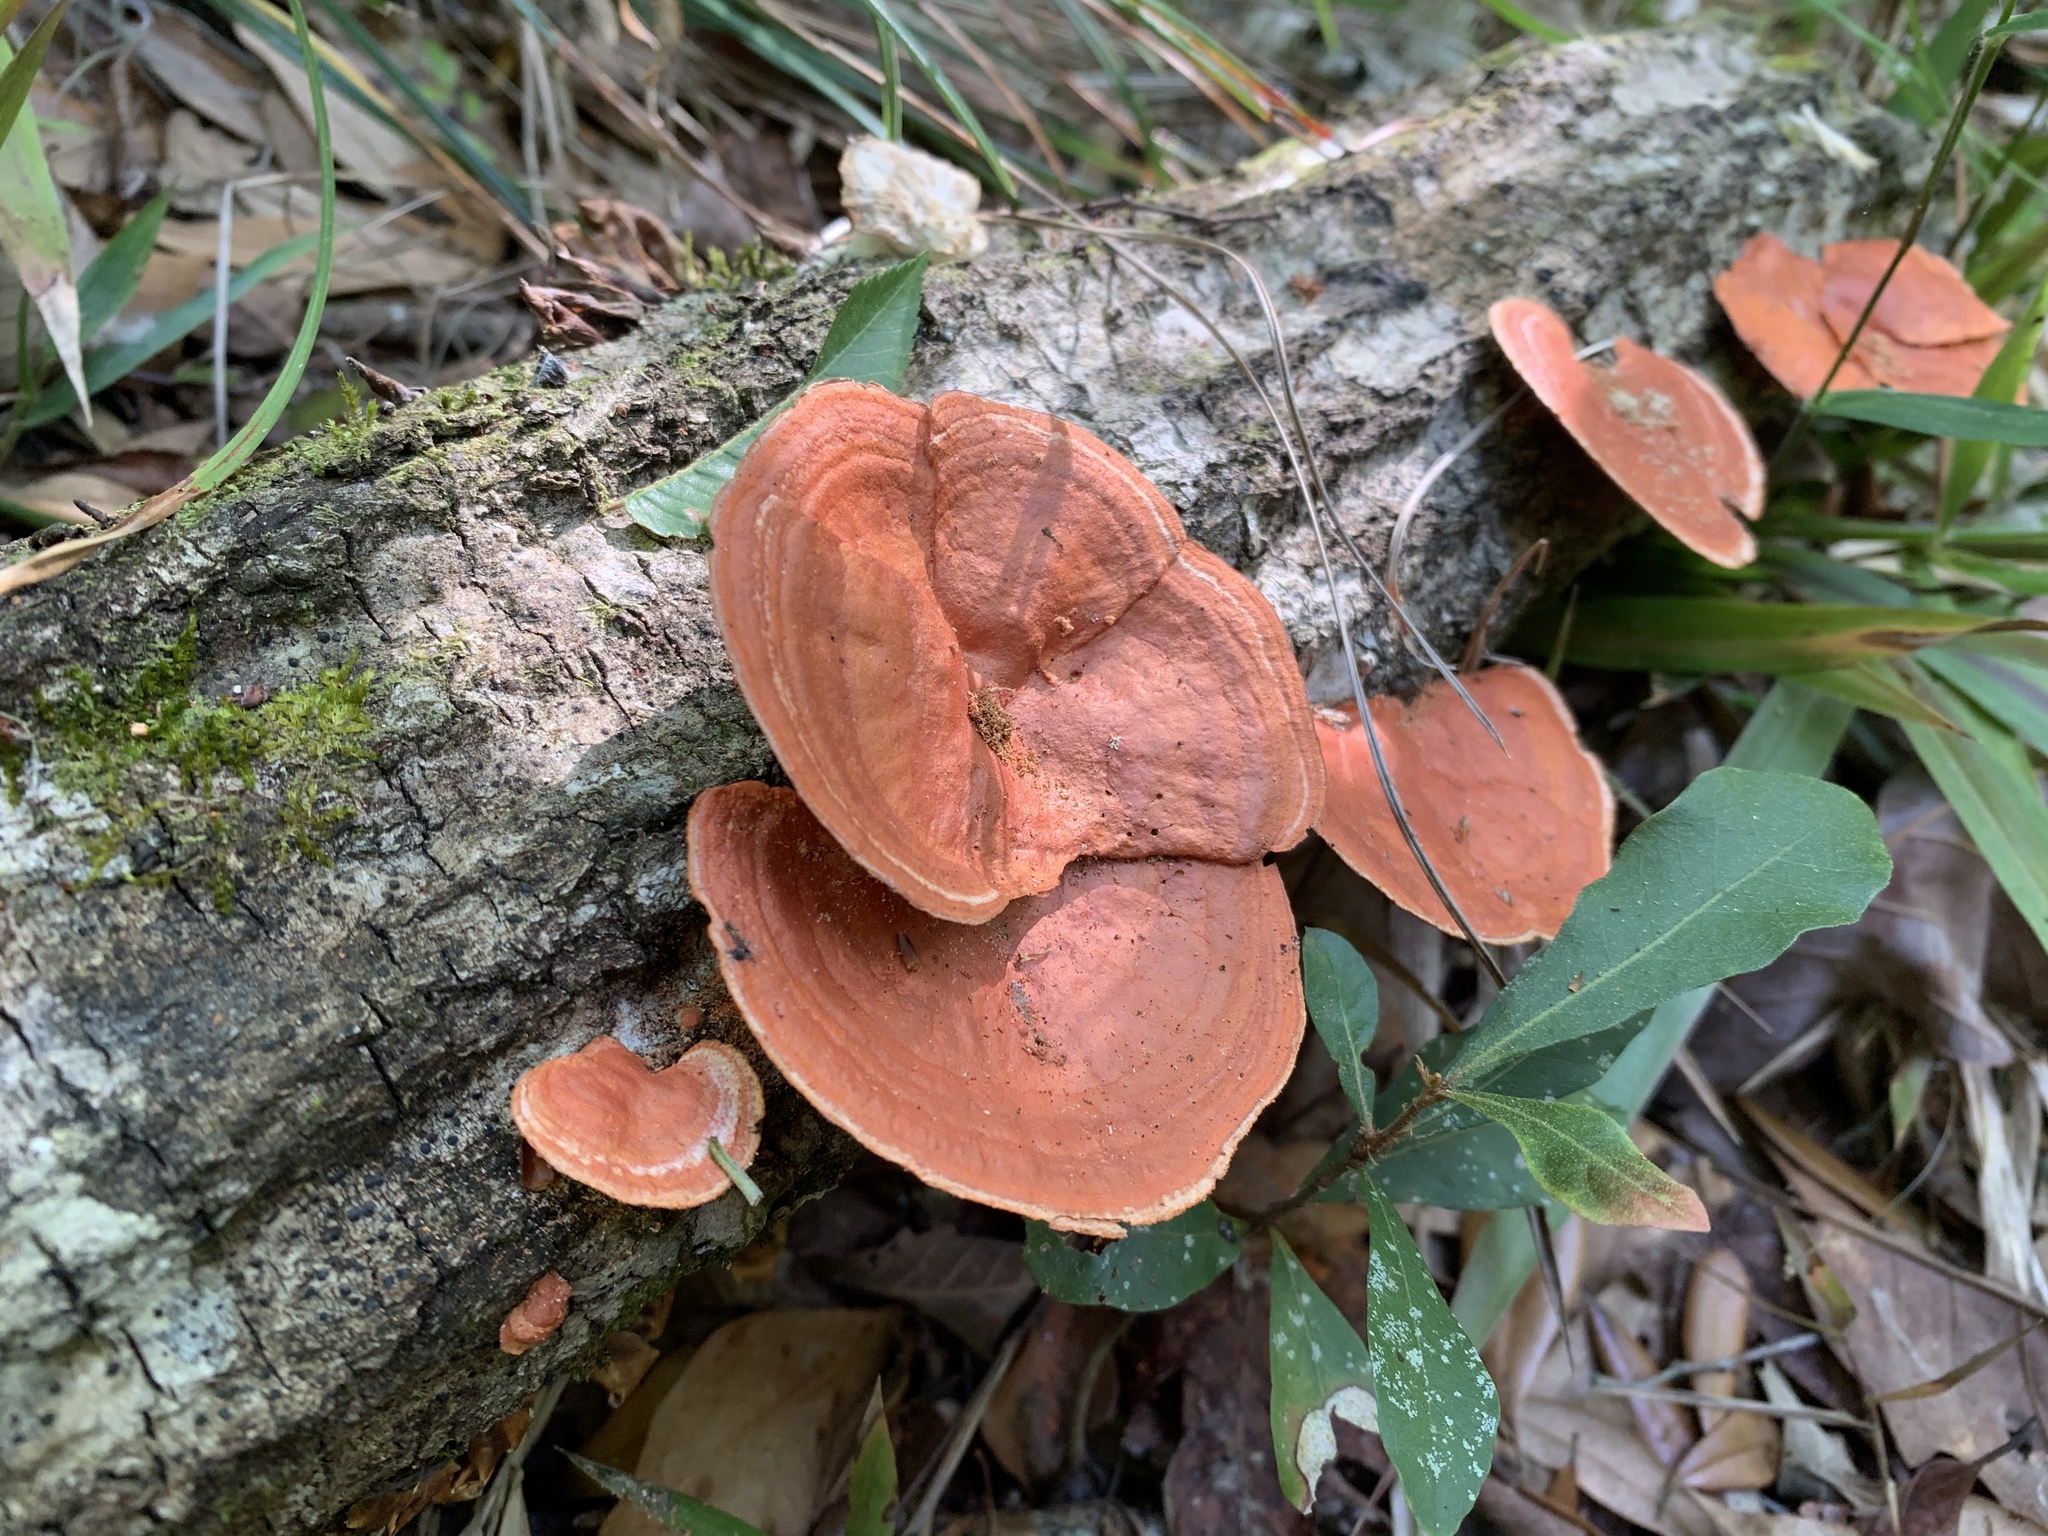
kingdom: Fungi
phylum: Basidiomycota
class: Agaricomycetes
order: Polyporales
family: Polyporaceae
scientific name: Polyporaceae
